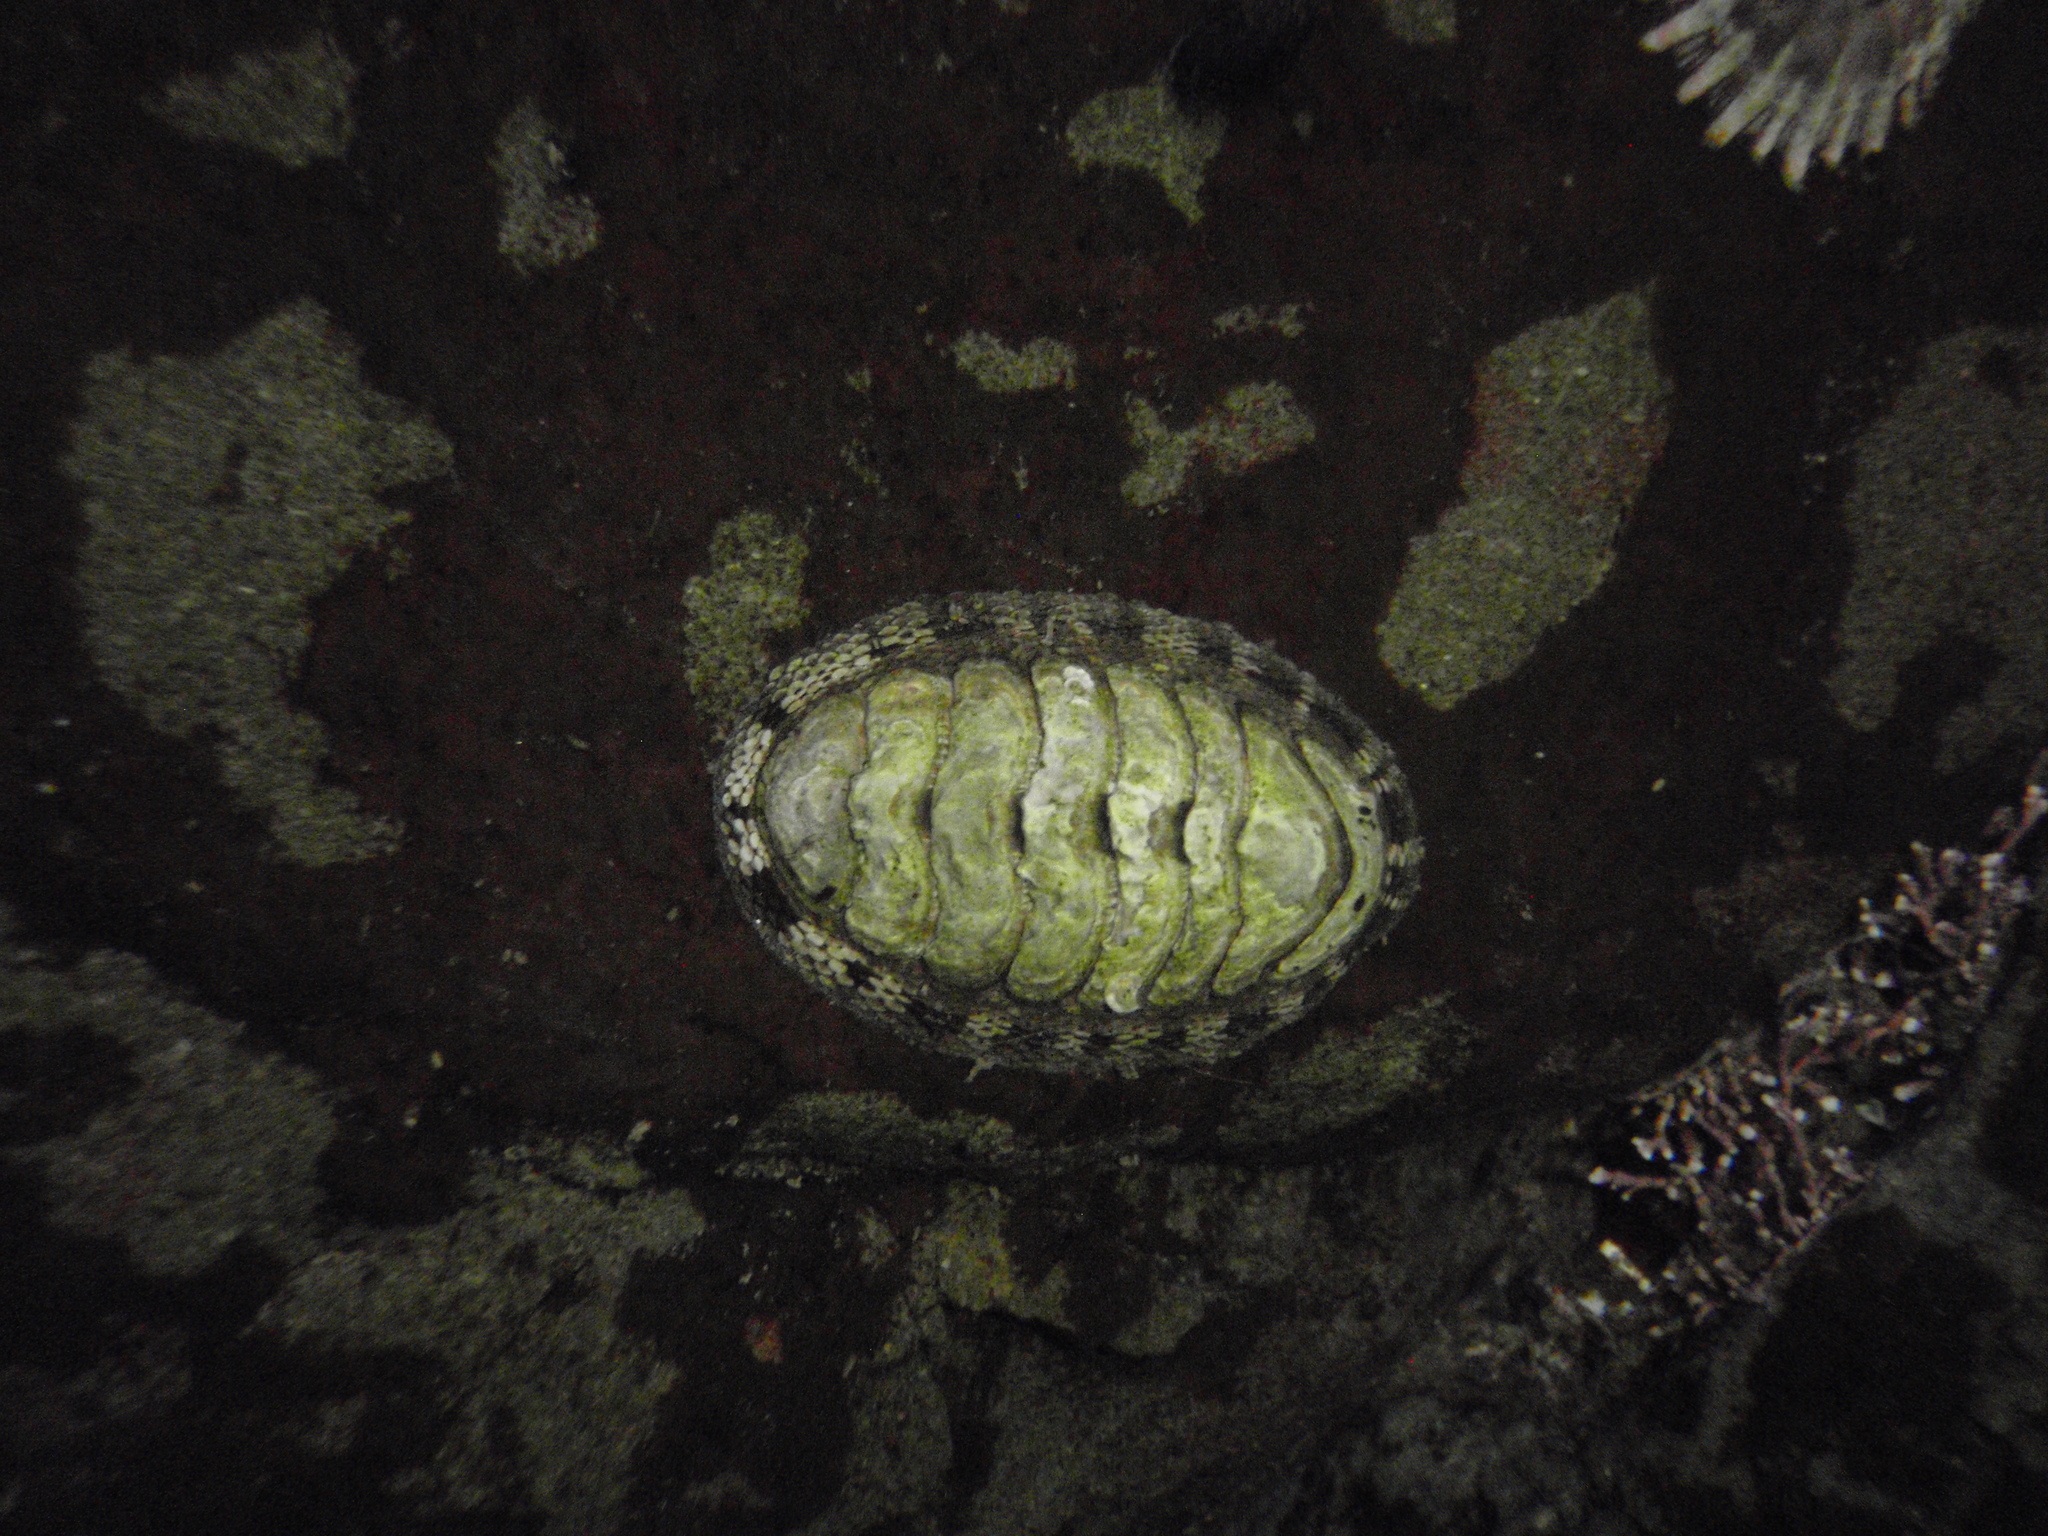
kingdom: Animalia
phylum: Mollusca
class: Polyplacophora
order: Chitonida
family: Chitonidae
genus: Sypharochiton
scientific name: Sypharochiton pelliserpentis
